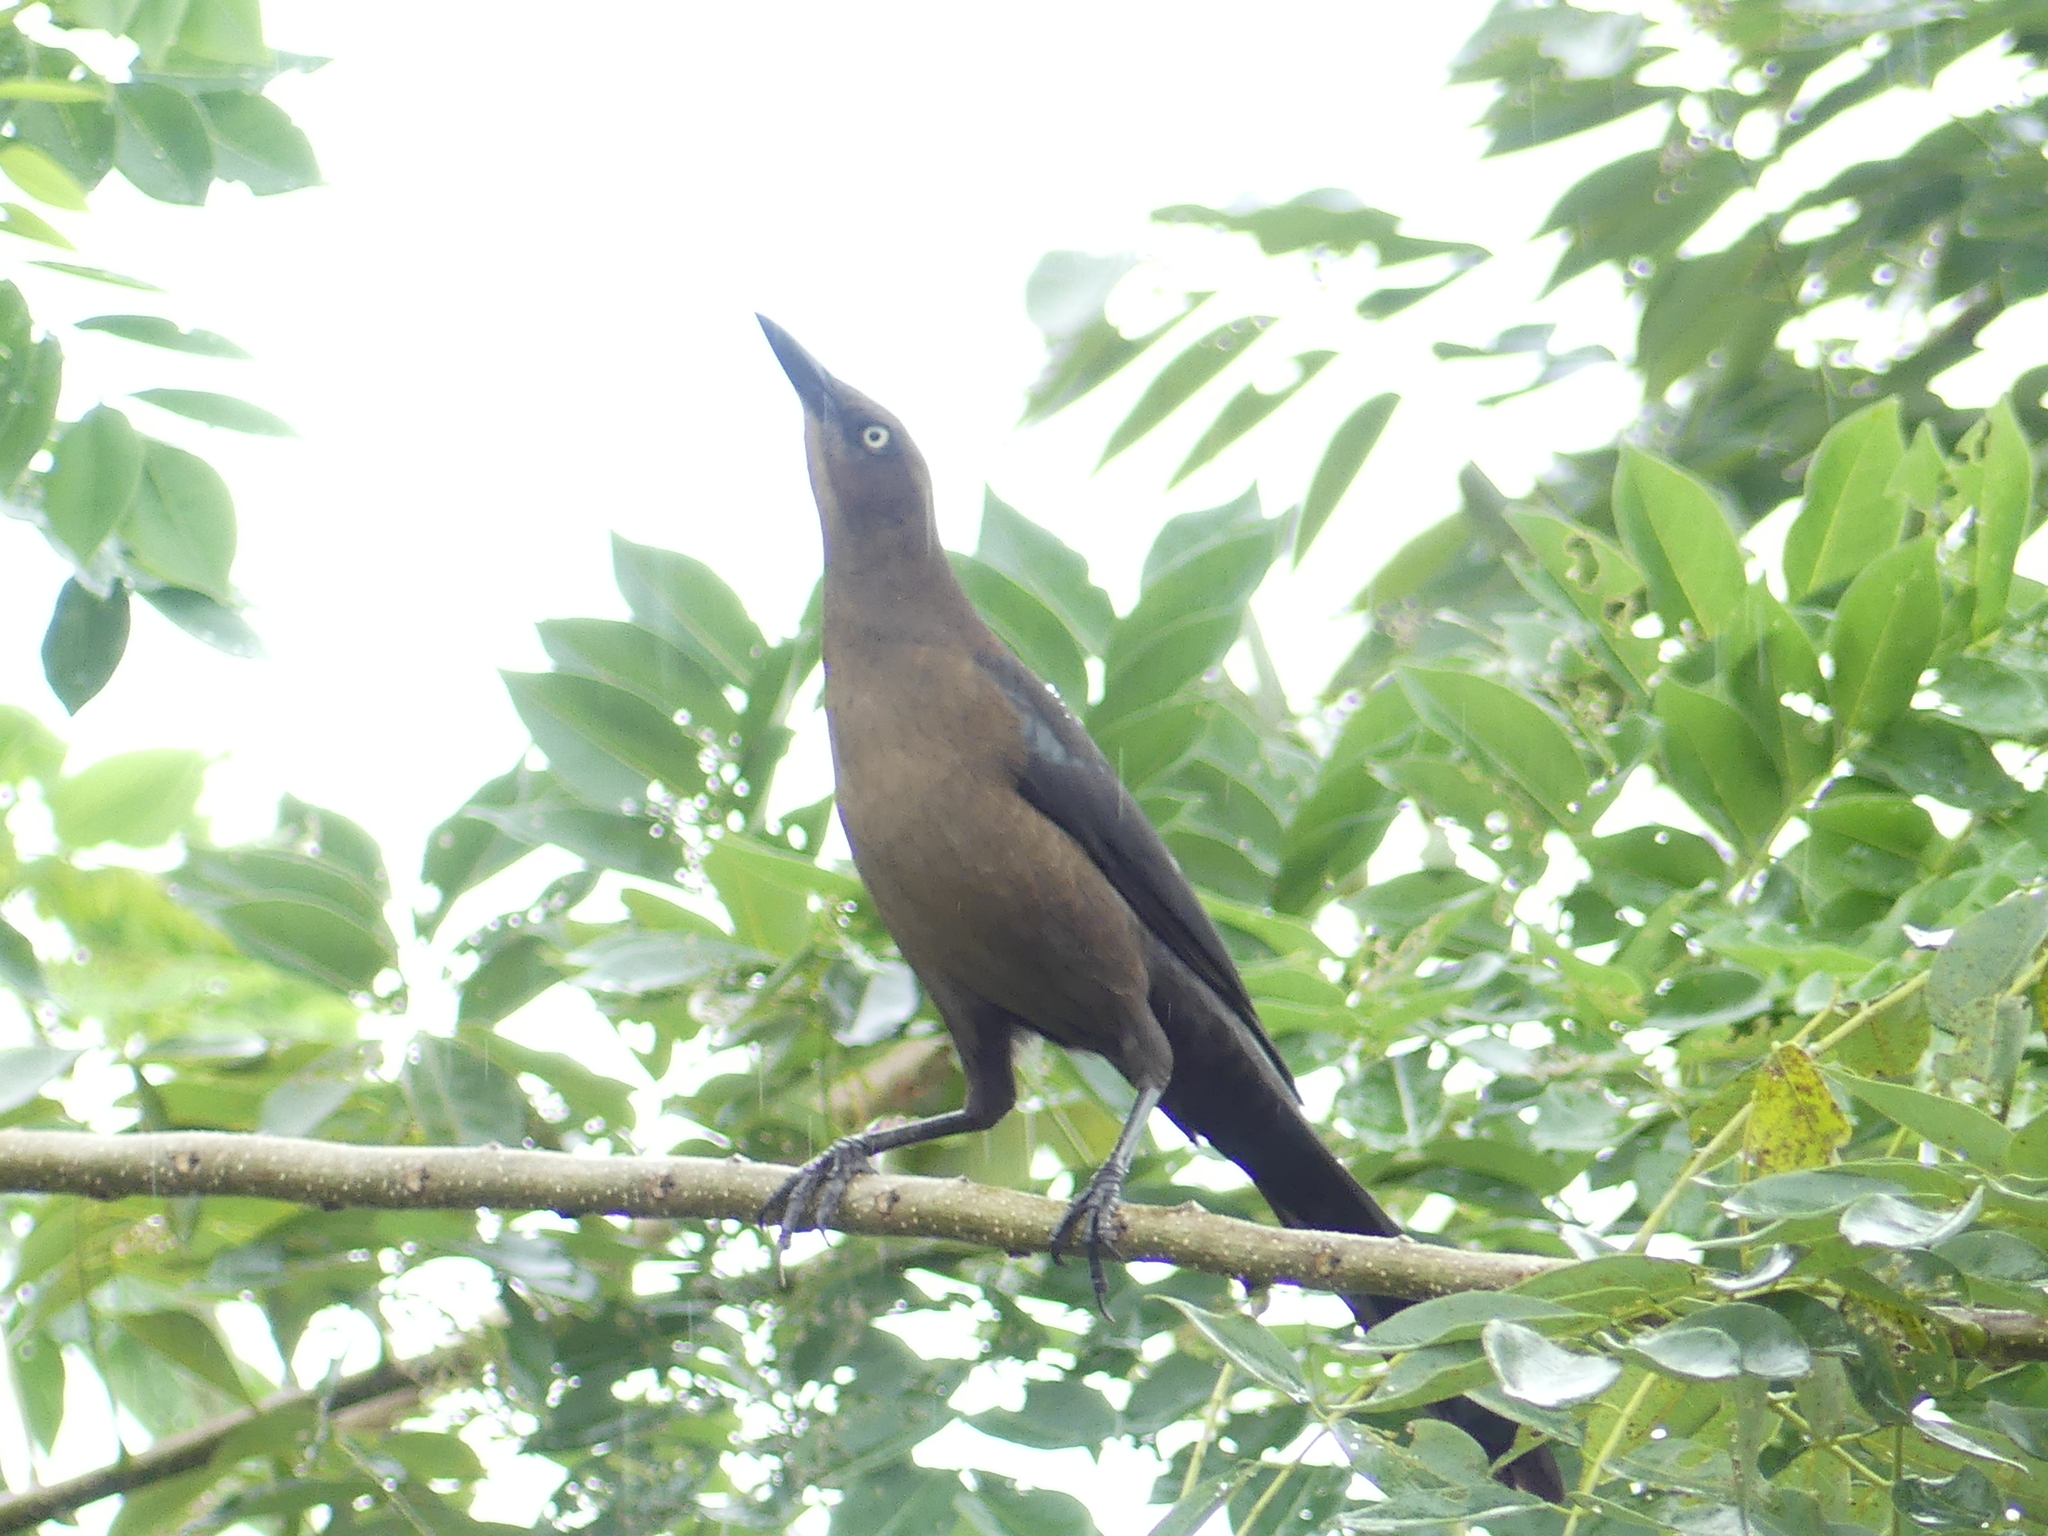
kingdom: Animalia
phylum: Chordata
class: Aves
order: Passeriformes
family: Icteridae
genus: Quiscalus
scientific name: Quiscalus mexicanus
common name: Great-tailed grackle
